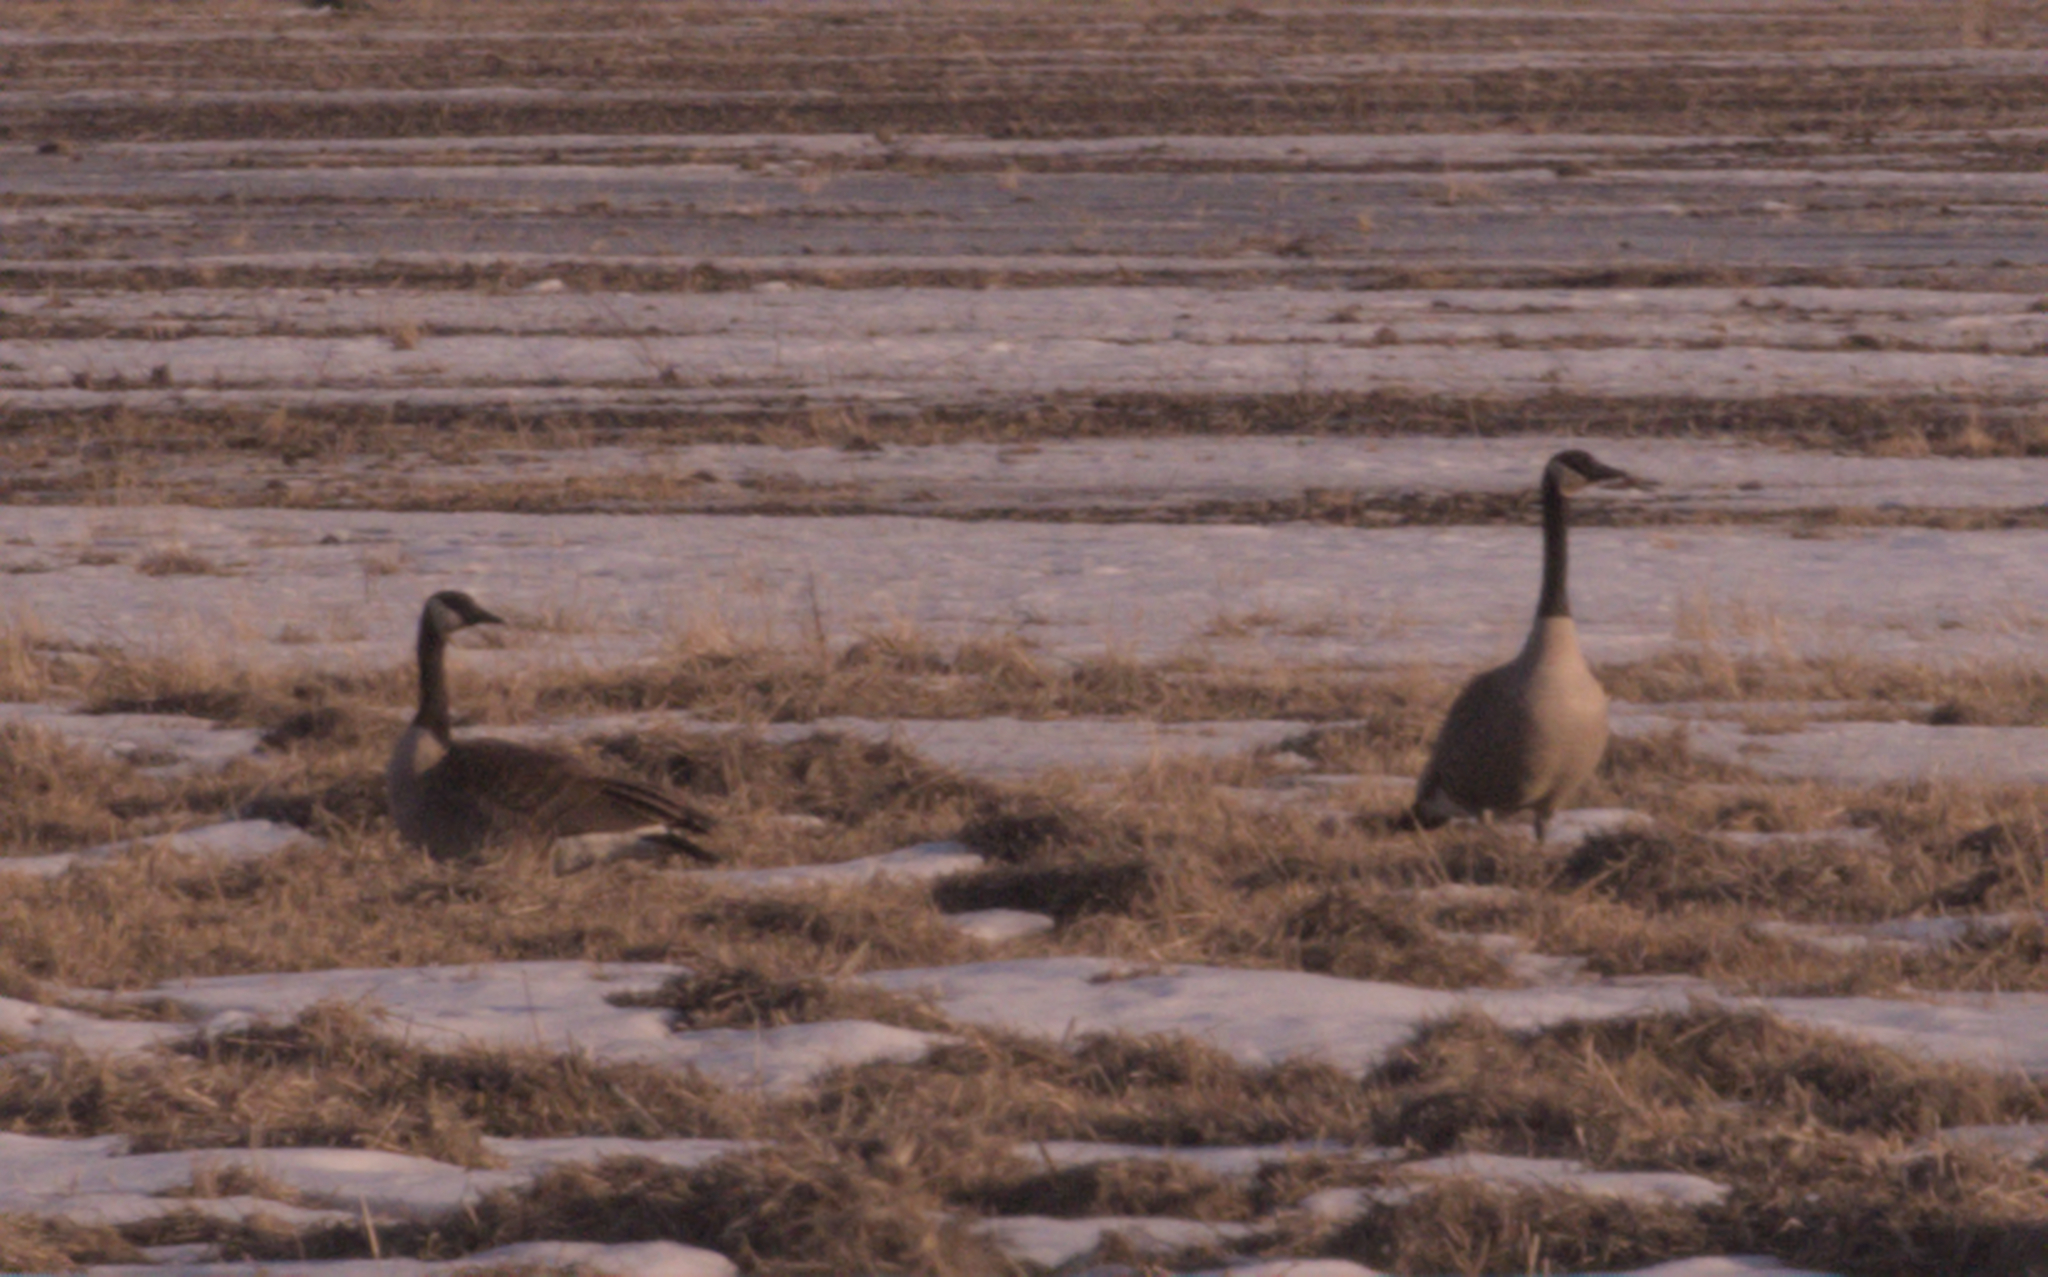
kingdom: Animalia
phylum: Chordata
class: Aves
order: Anseriformes
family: Anatidae
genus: Branta
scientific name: Branta canadensis
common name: Canada goose
